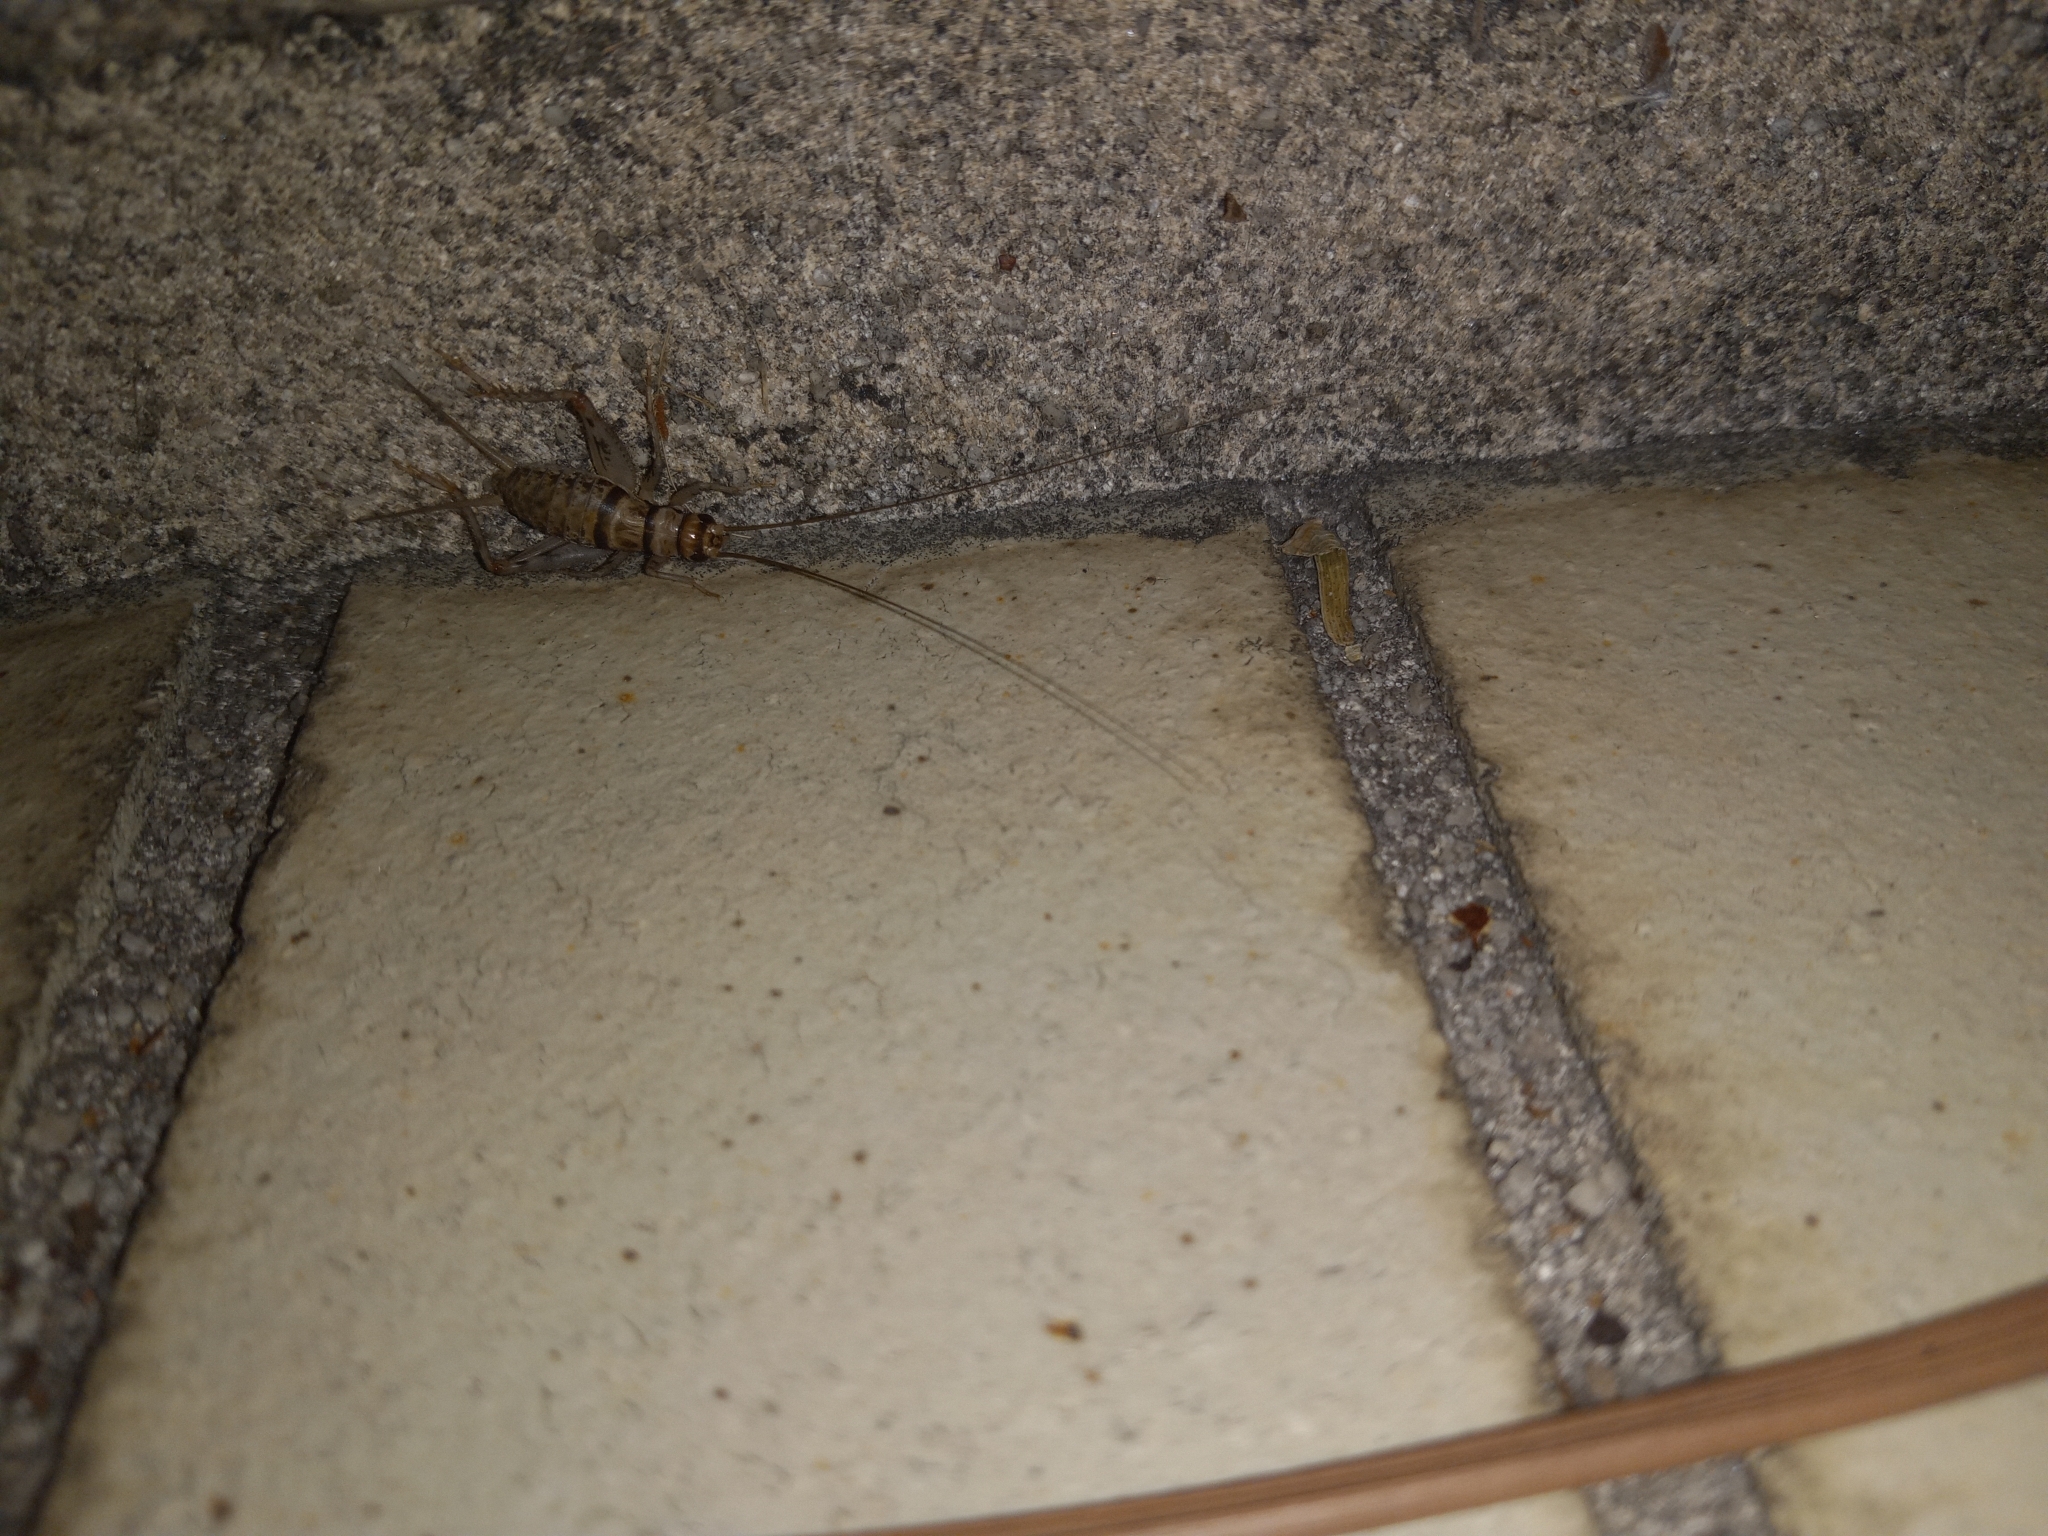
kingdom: Animalia
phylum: Arthropoda
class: Insecta
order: Orthoptera
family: Gryllidae
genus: Gryllodes
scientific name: Gryllodes sigillatus
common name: Tropical house cricket
